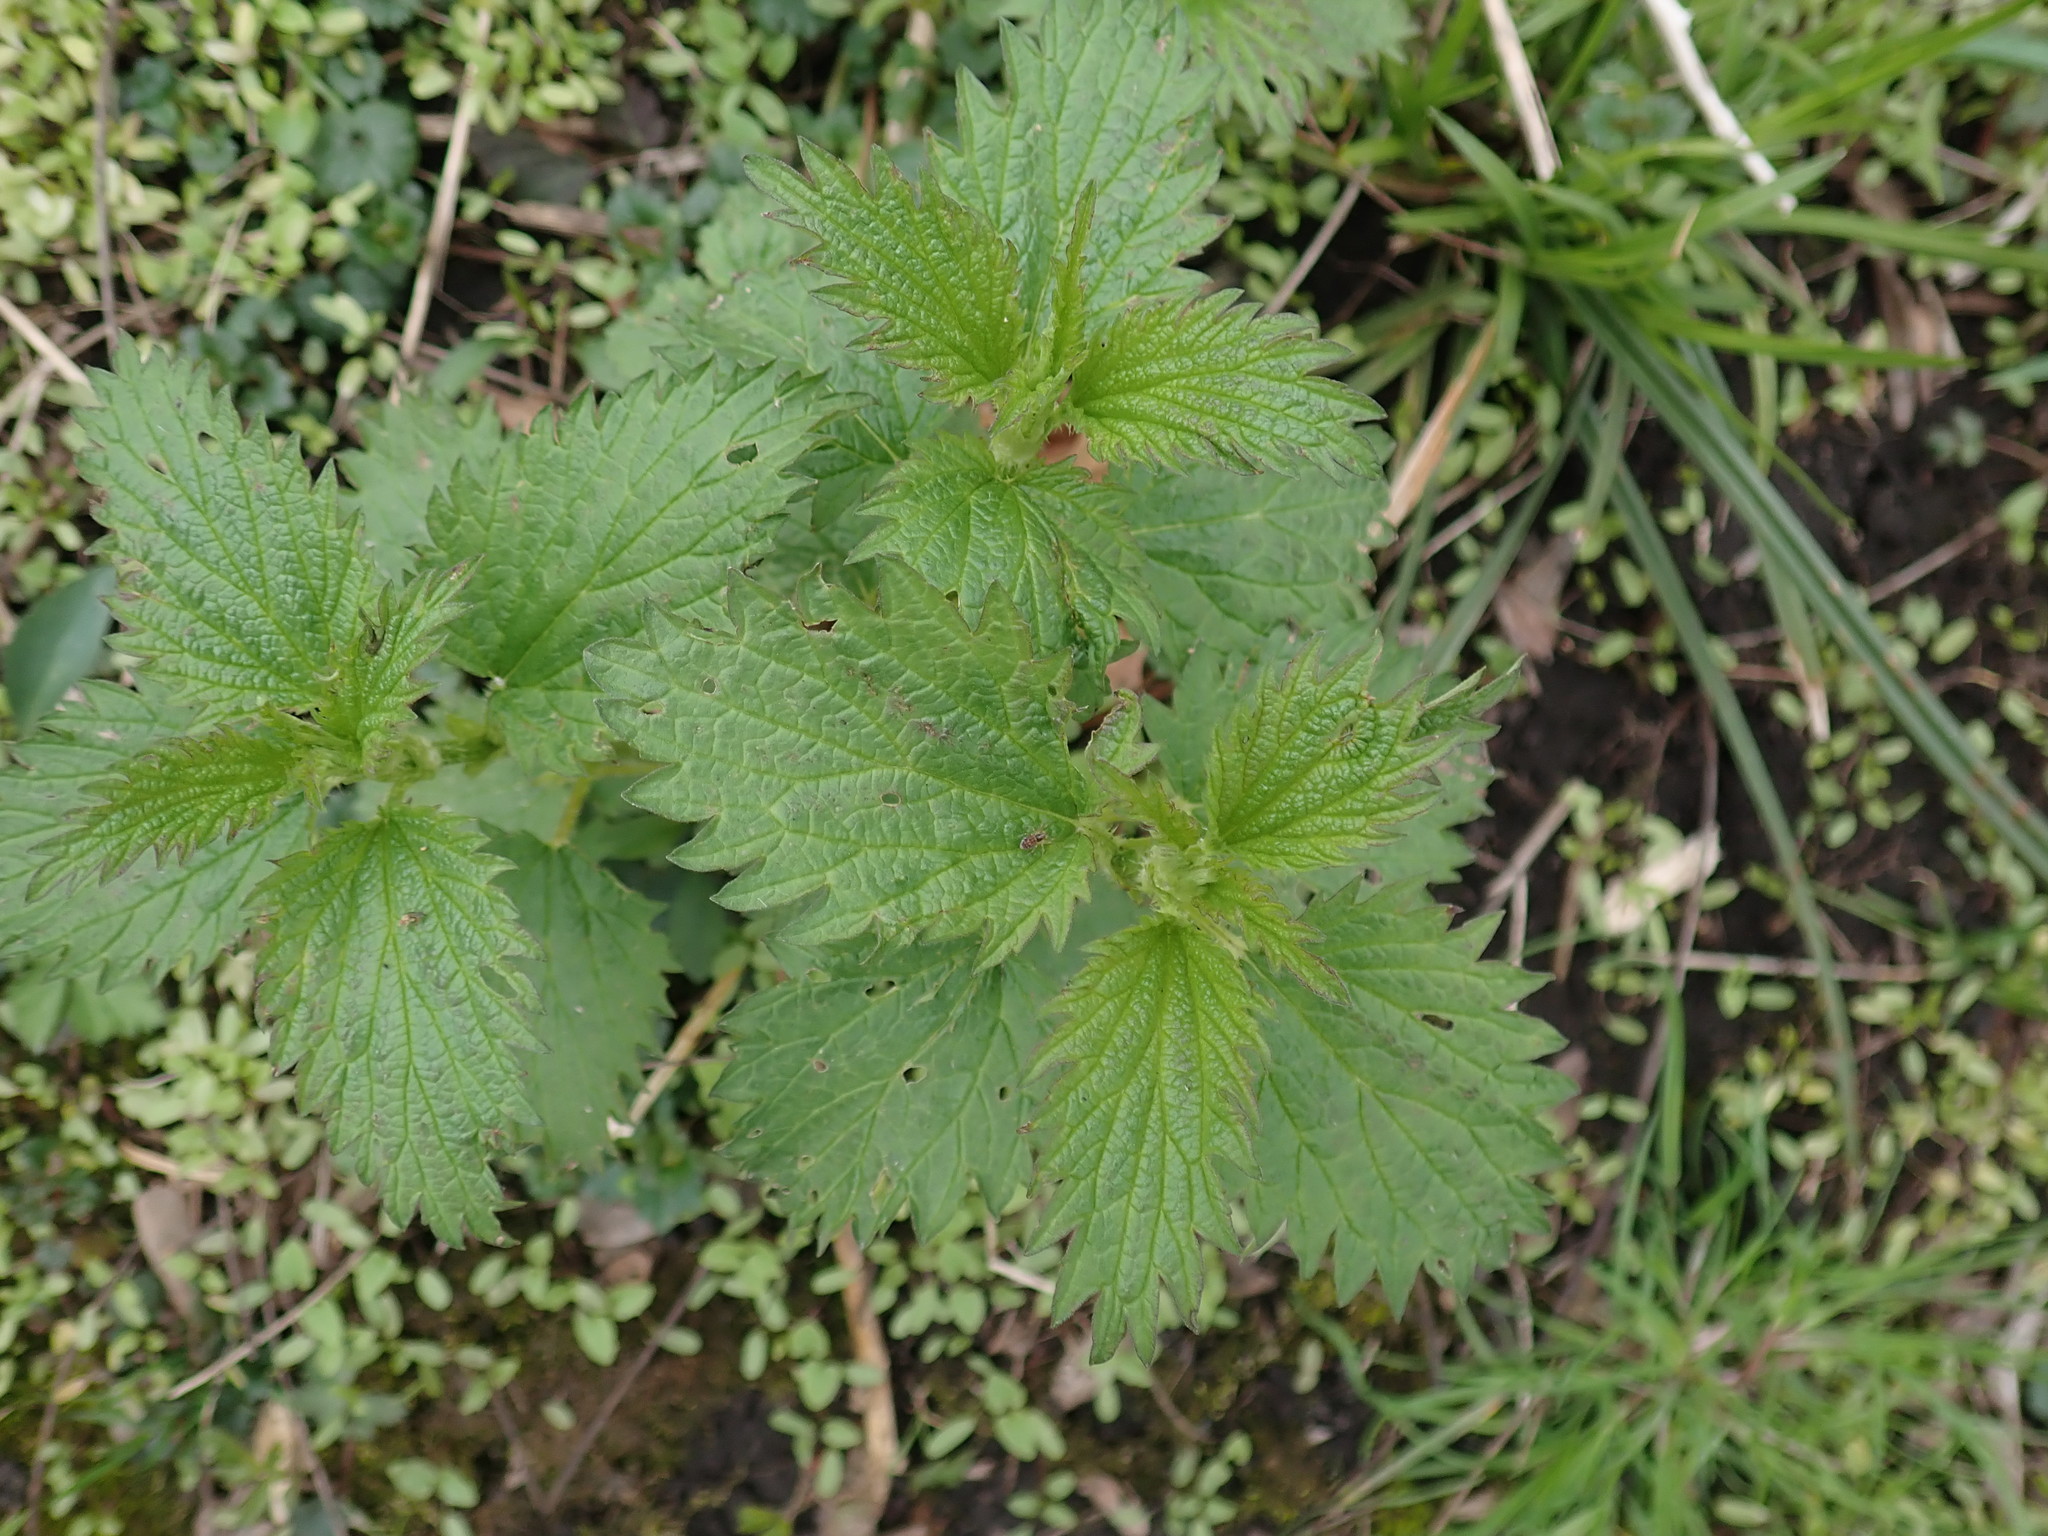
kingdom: Plantae
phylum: Tracheophyta
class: Magnoliopsida
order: Rosales
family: Urticaceae
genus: Urtica
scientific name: Urtica dioica
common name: Common nettle
